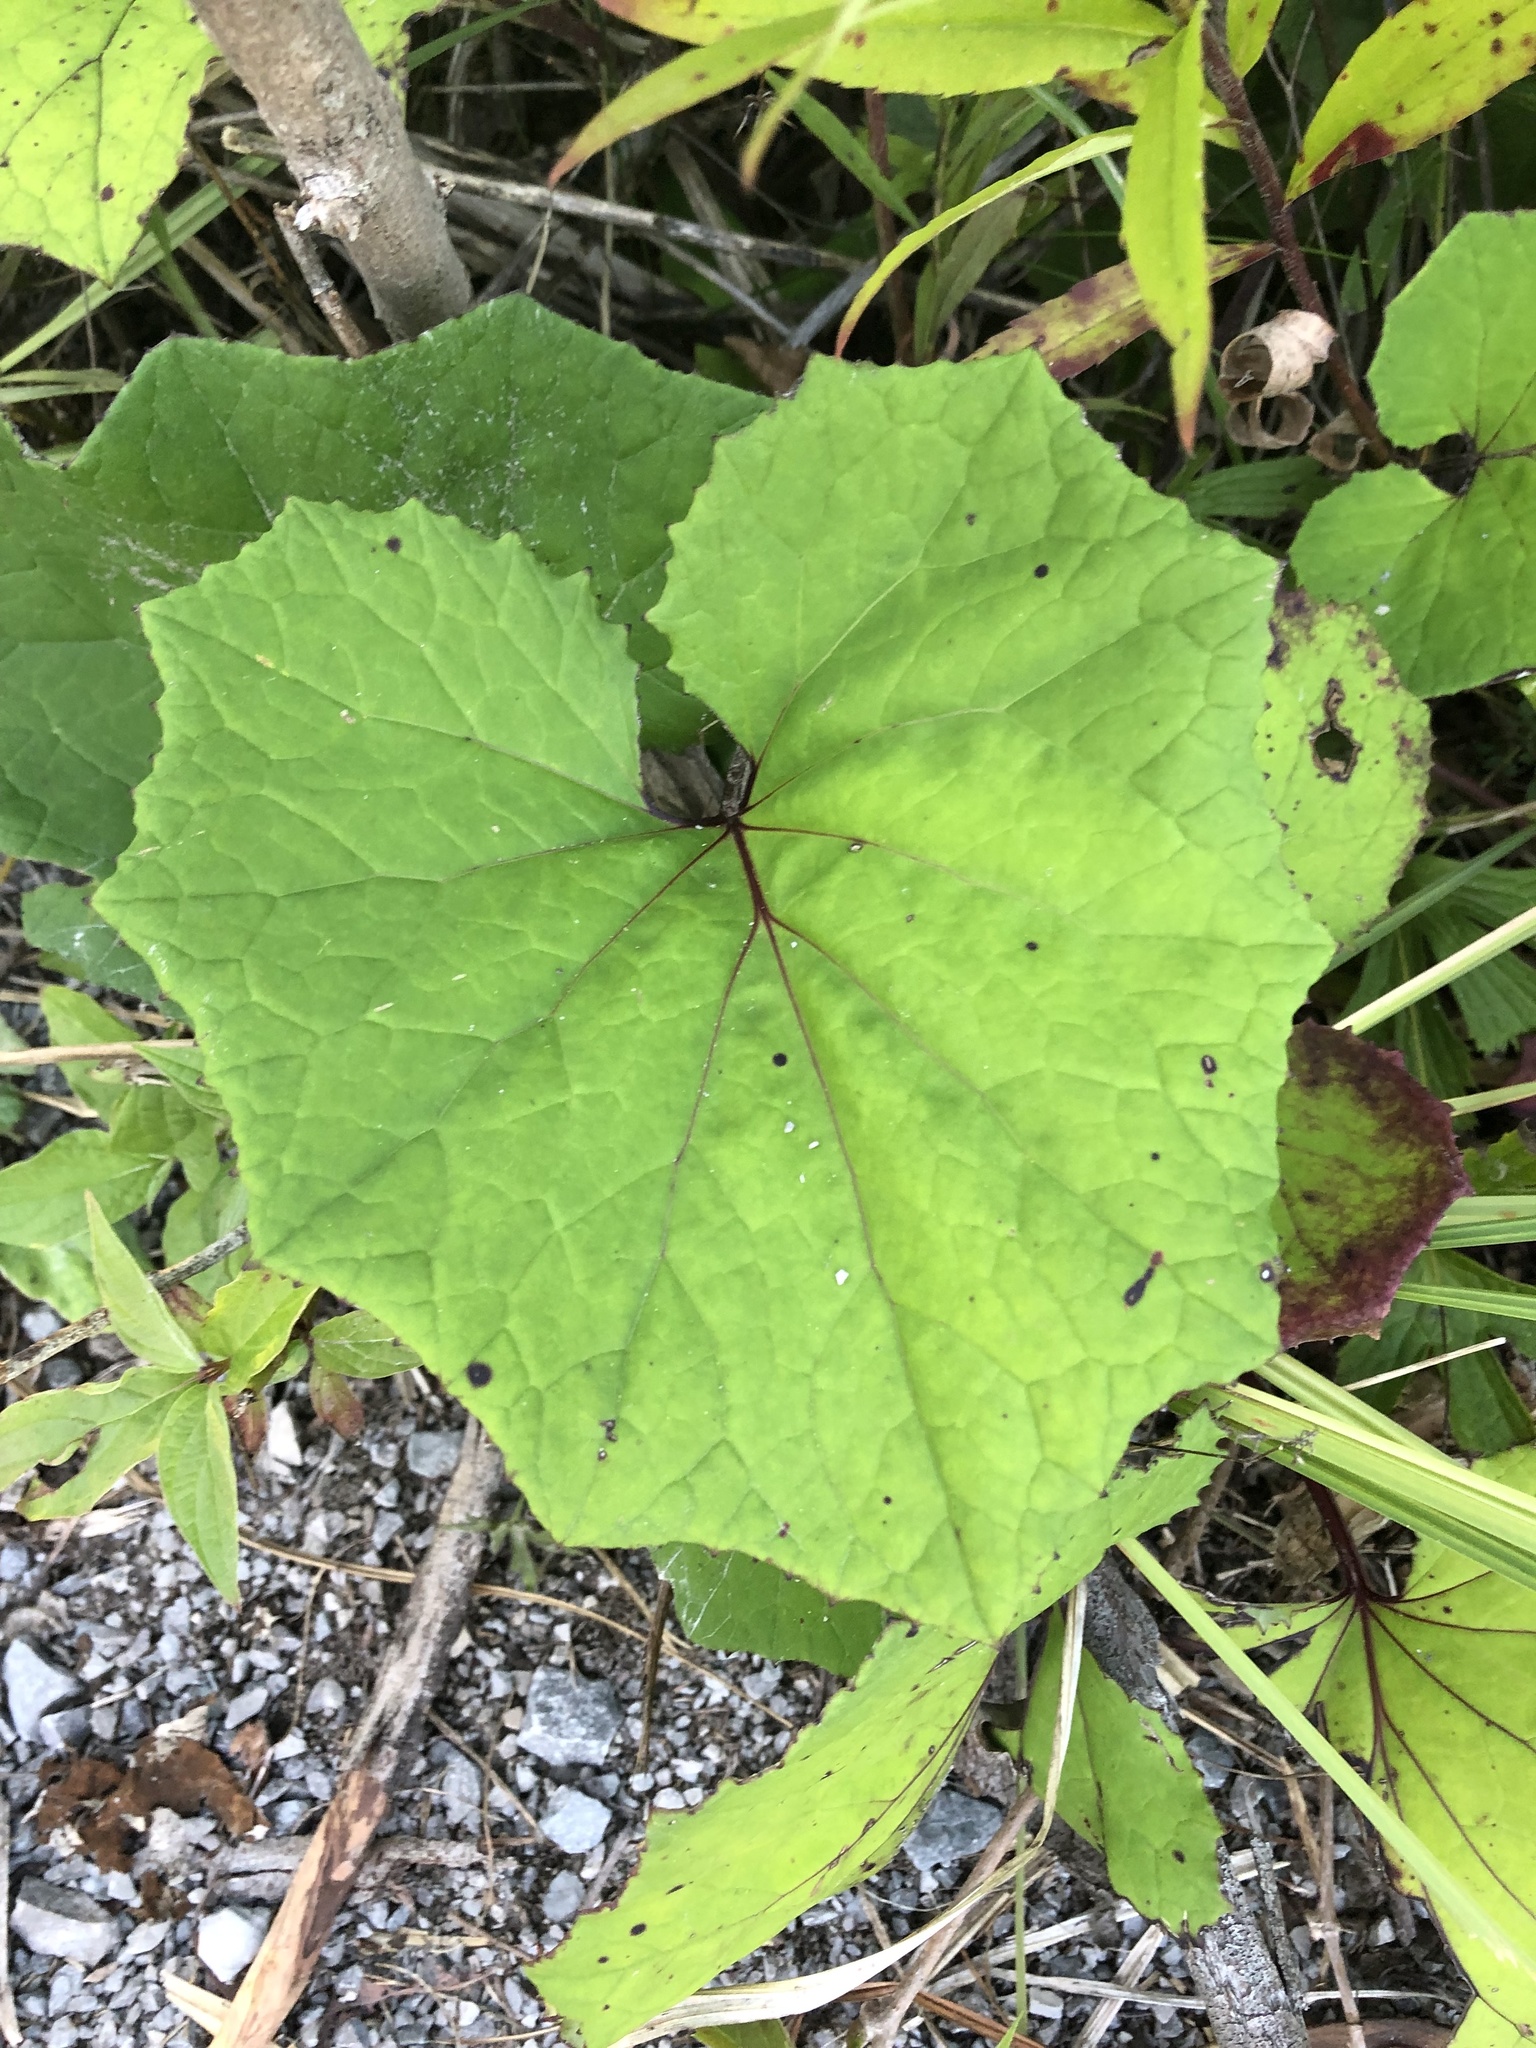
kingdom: Plantae
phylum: Tracheophyta
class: Magnoliopsida
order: Asterales
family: Asteraceae
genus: Tussilago
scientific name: Tussilago farfara
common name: Coltsfoot
